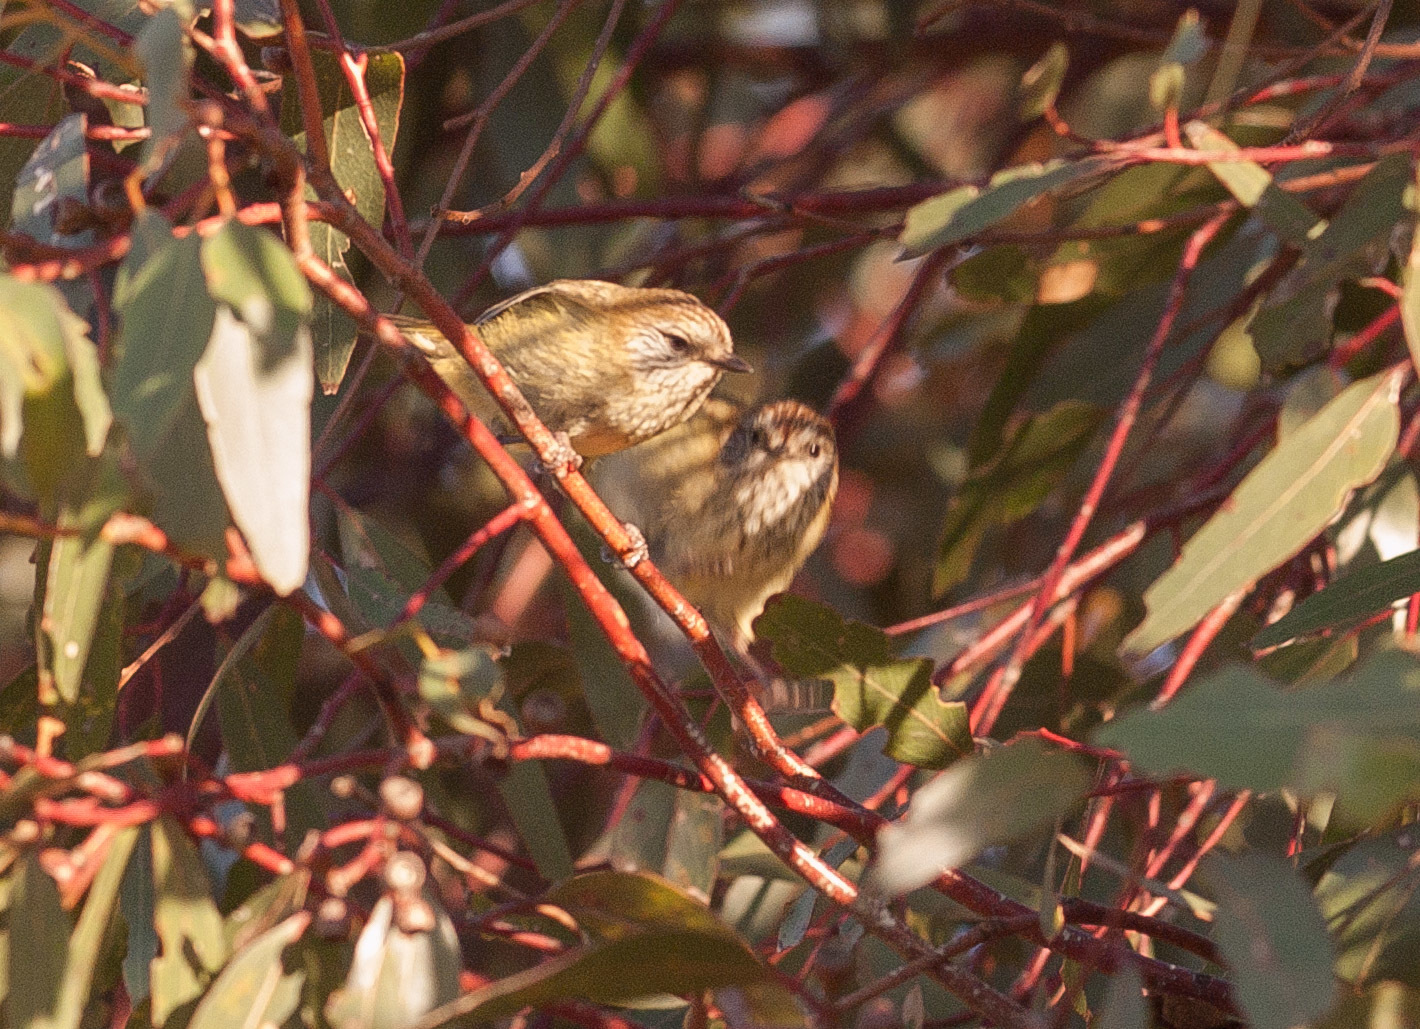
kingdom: Animalia
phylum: Chordata
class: Aves
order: Passeriformes
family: Acanthizidae
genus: Acanthiza
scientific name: Acanthiza lineata
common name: Striated thornbill
